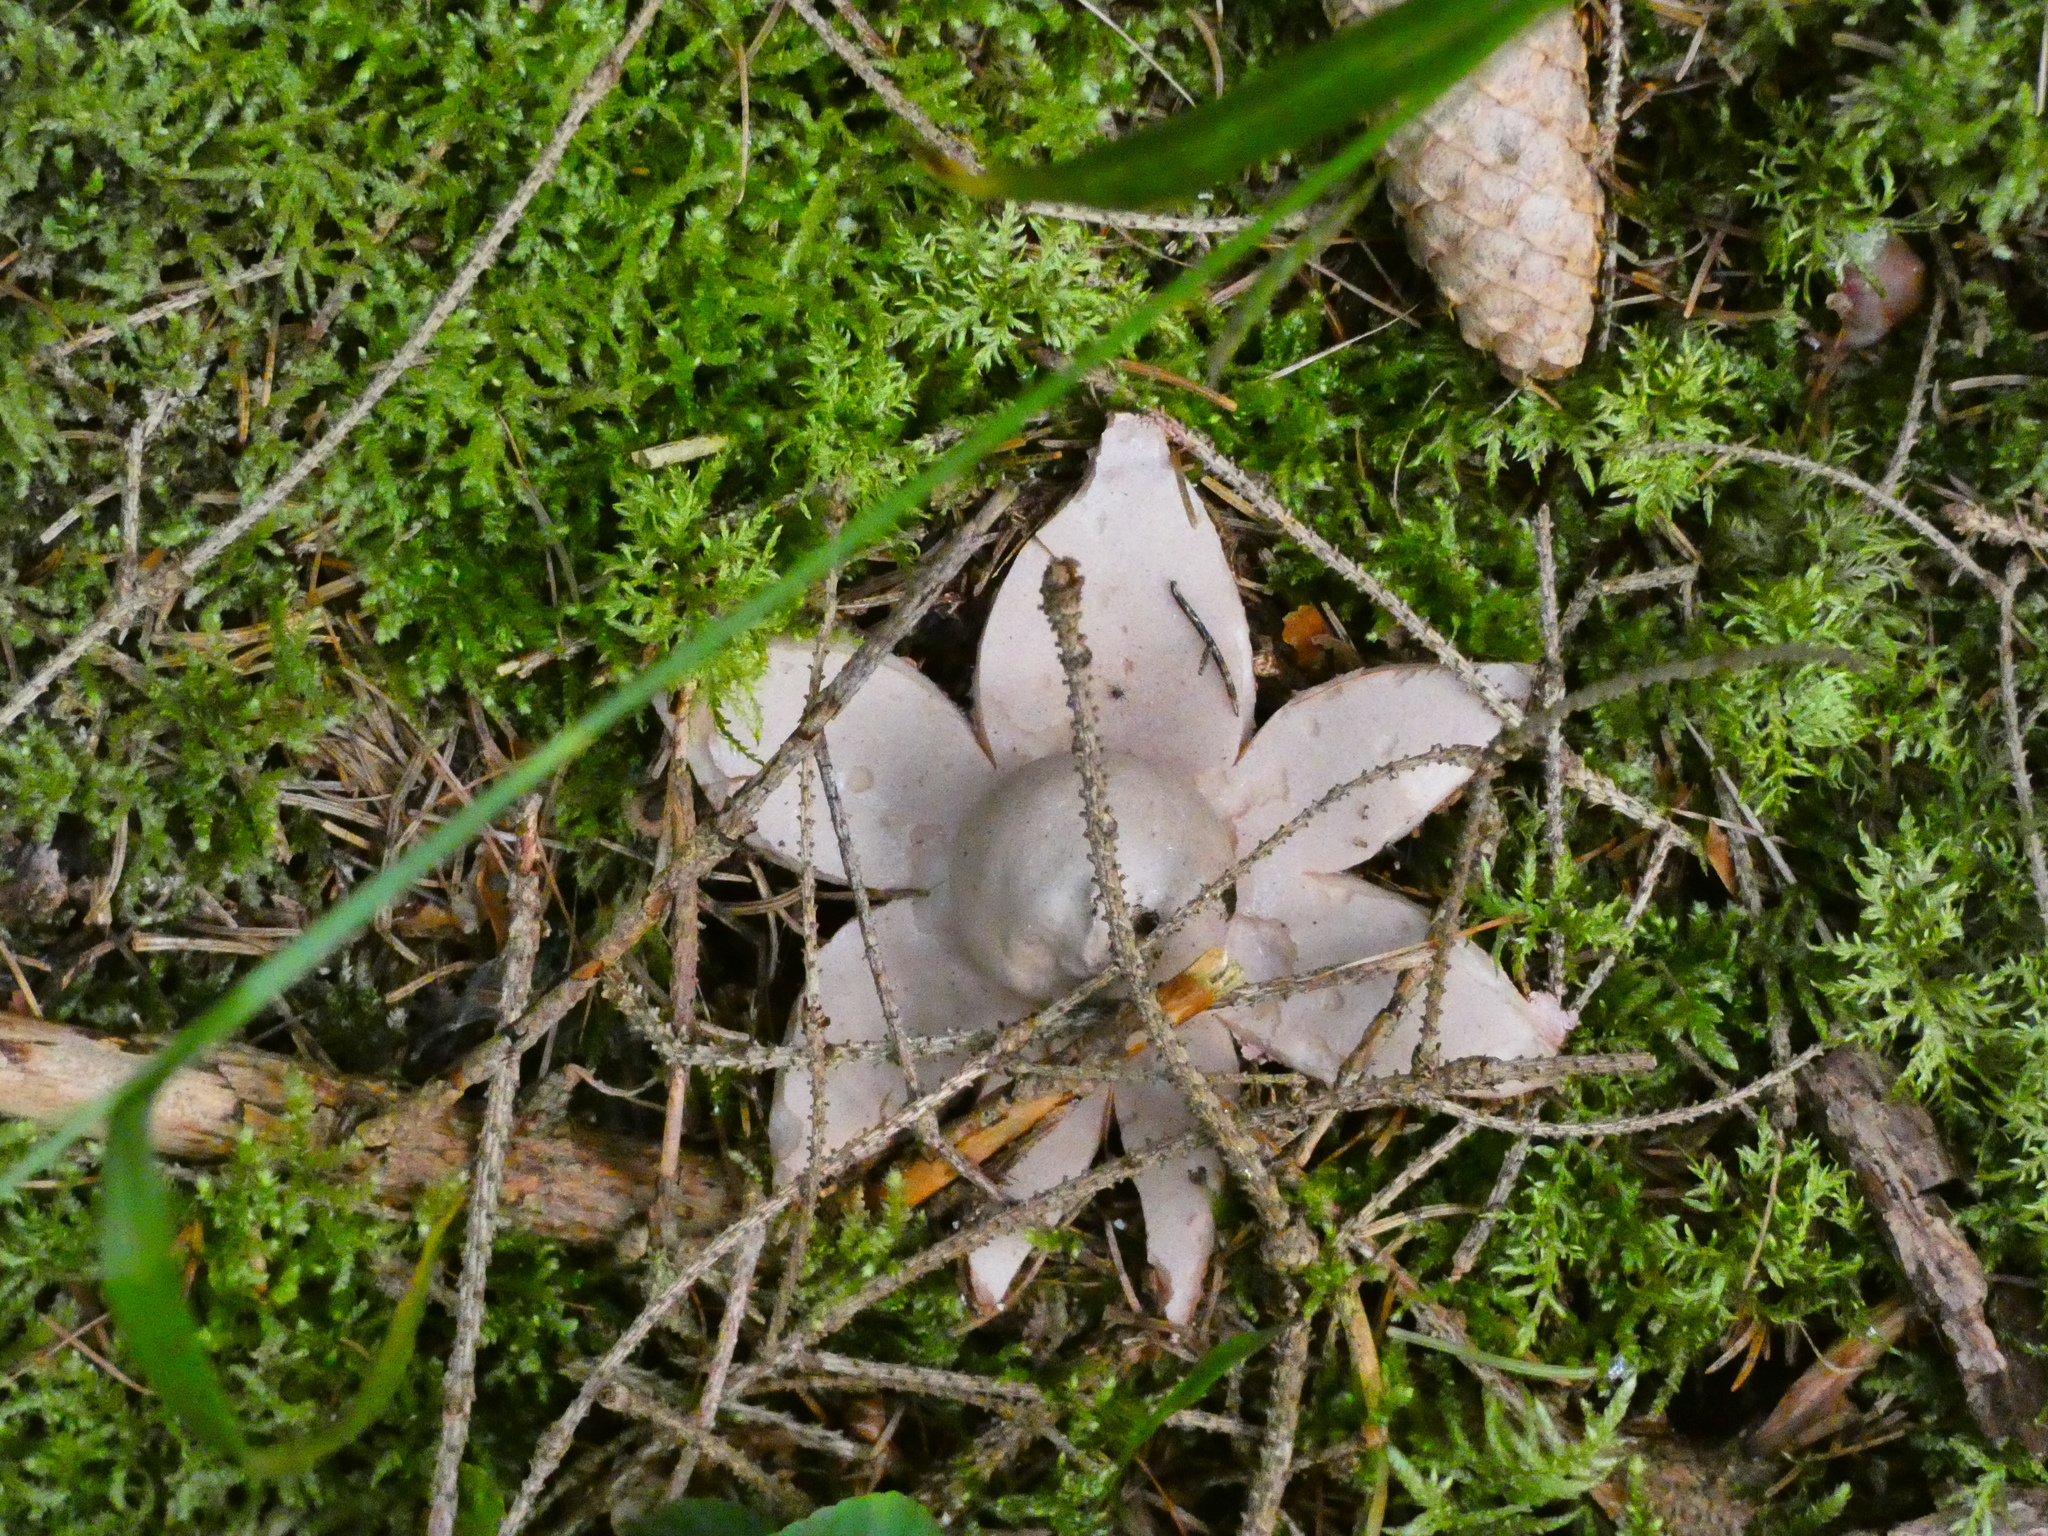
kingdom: Fungi
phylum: Basidiomycota
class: Agaricomycetes
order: Geastrales
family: Geastraceae
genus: Geastrum
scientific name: Geastrum fimbriatum
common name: Sessile earthstar
